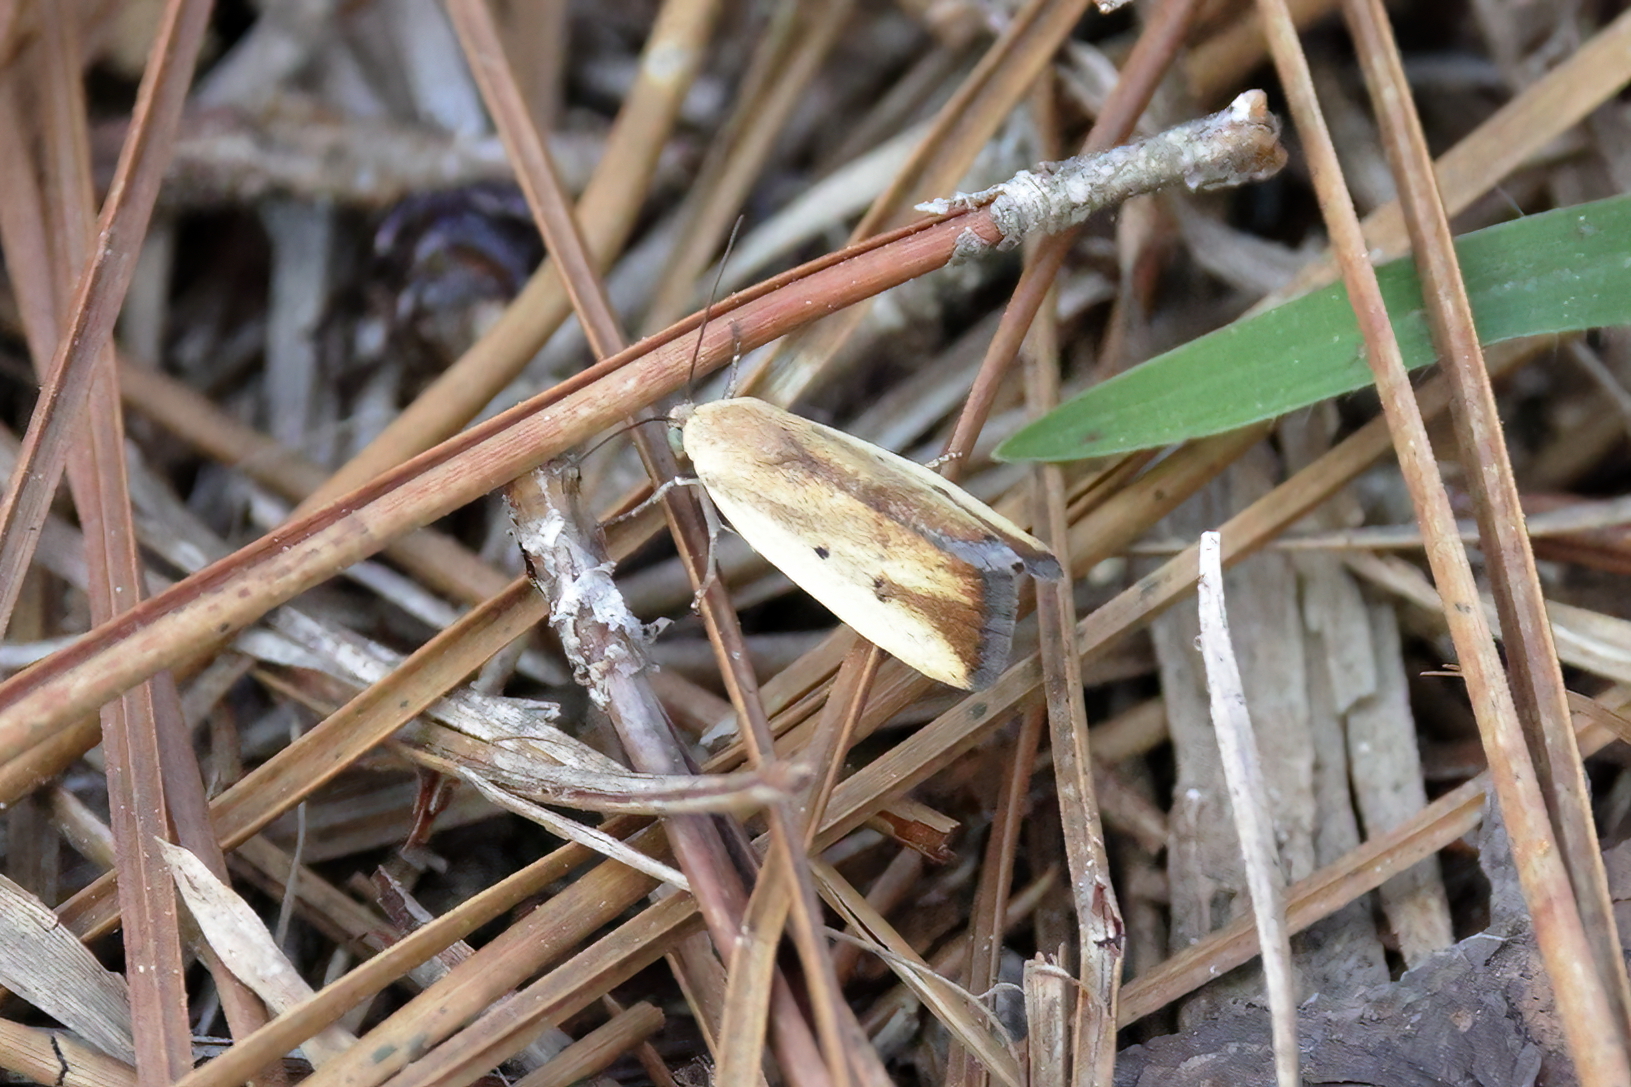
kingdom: Animalia
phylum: Arthropoda
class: Insecta
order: Lepidoptera
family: Noctuidae
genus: Acontia
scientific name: Acontia parvula
